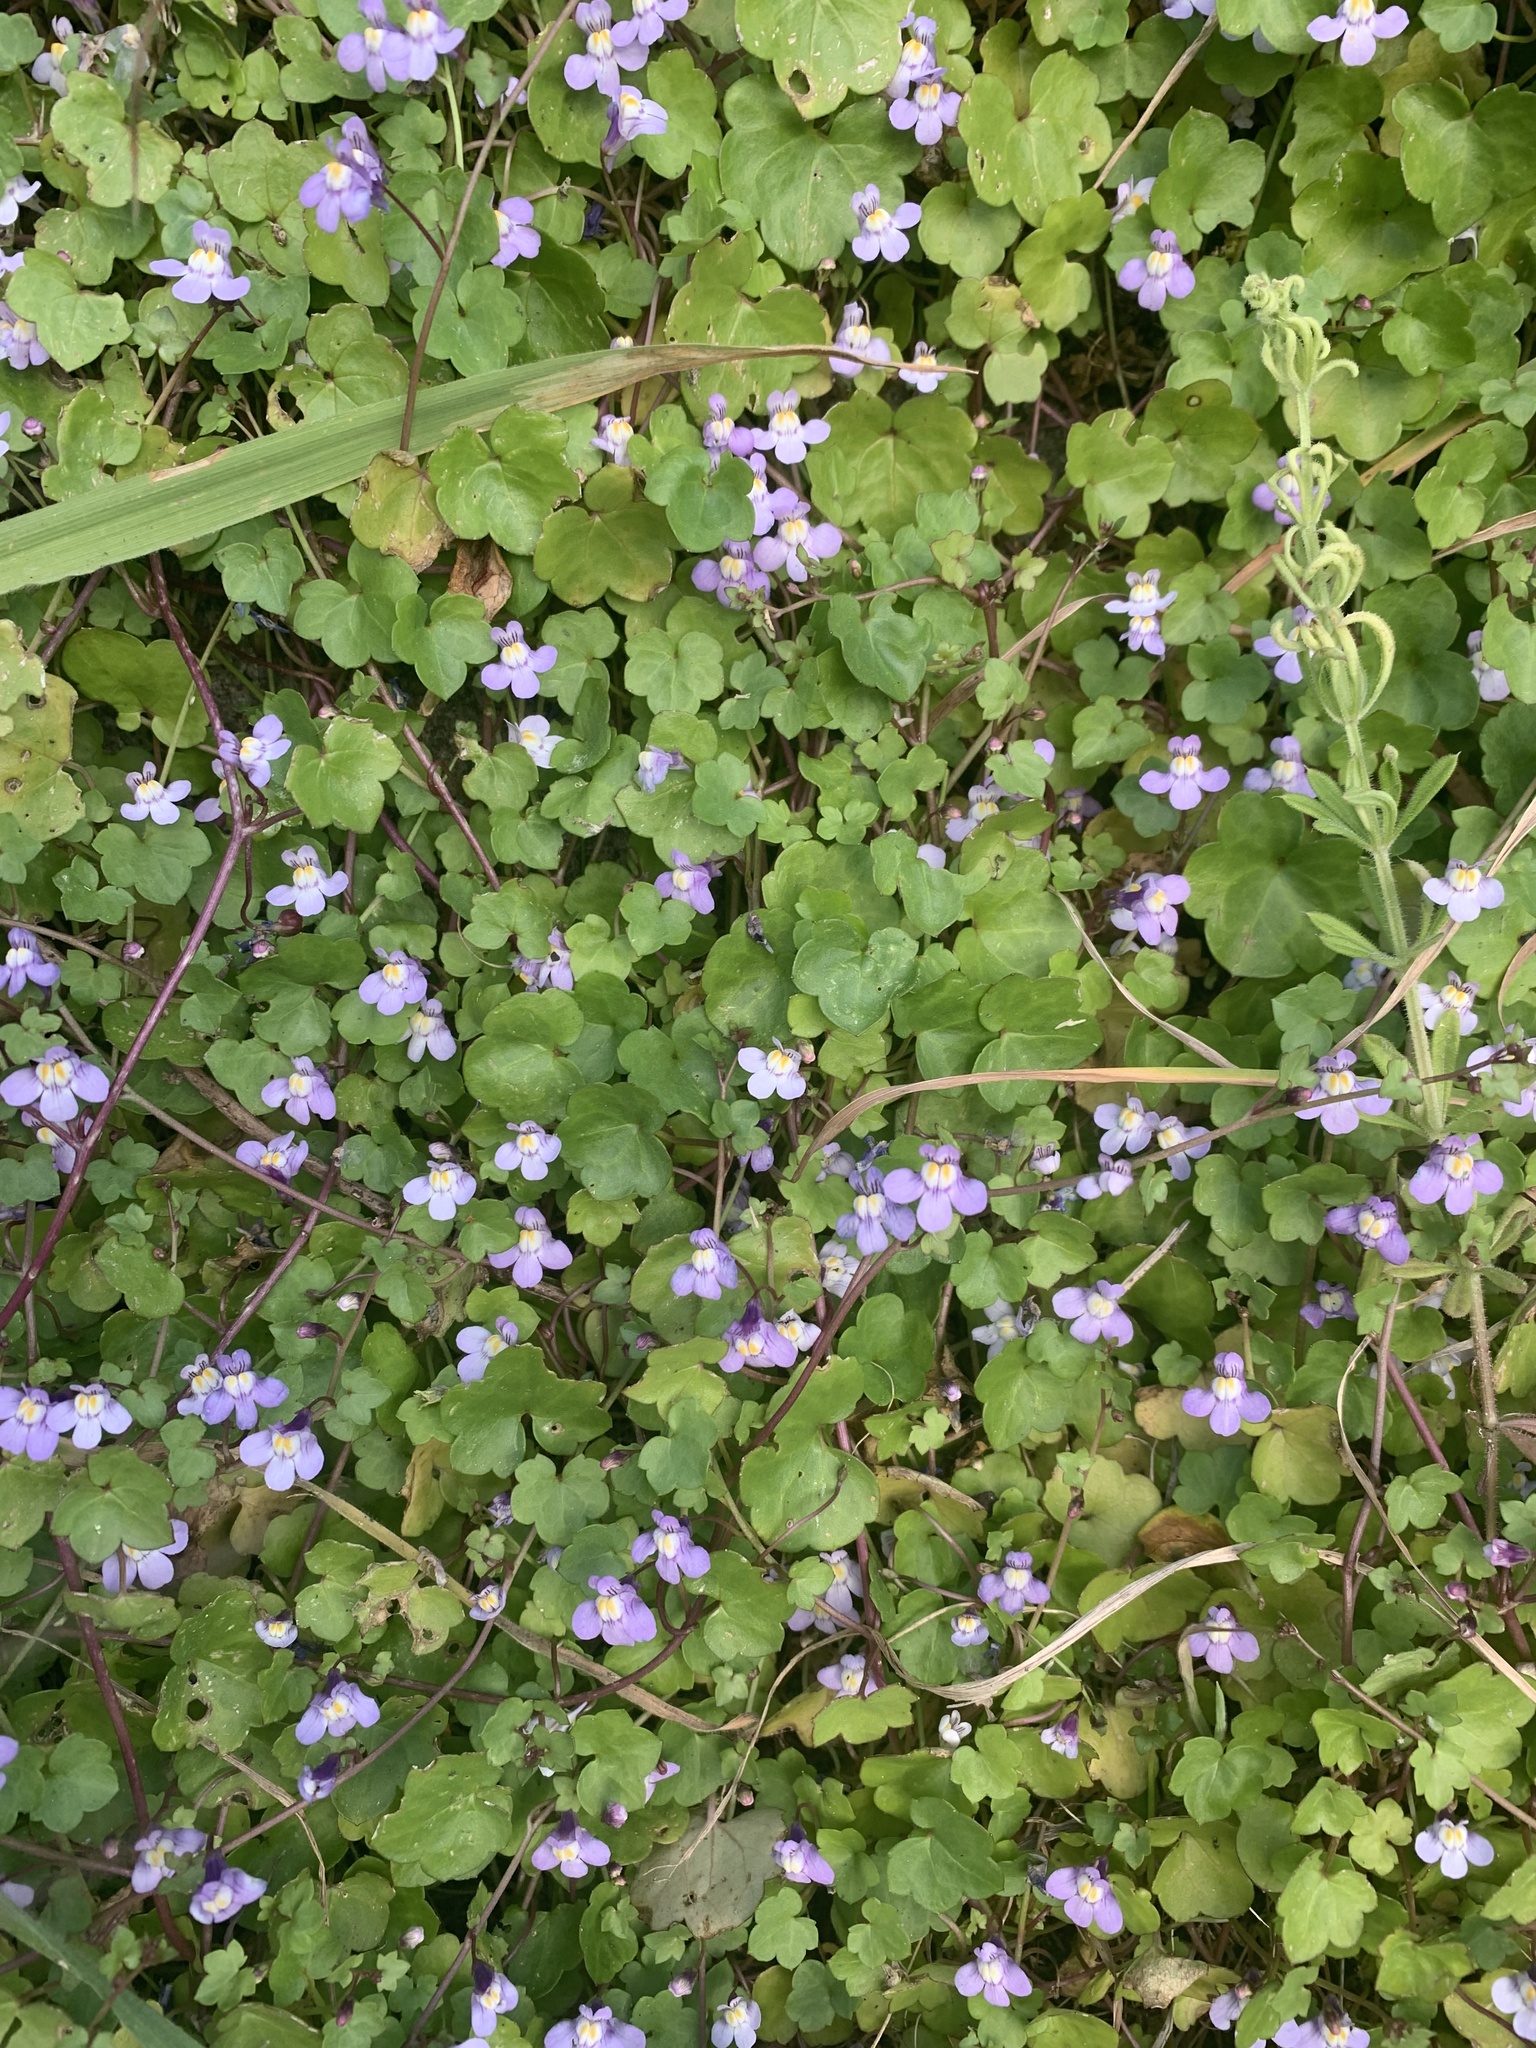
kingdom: Plantae
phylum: Tracheophyta
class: Magnoliopsida
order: Lamiales
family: Plantaginaceae
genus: Cymbalaria
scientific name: Cymbalaria muralis
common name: Ivy-leaved toadflax
